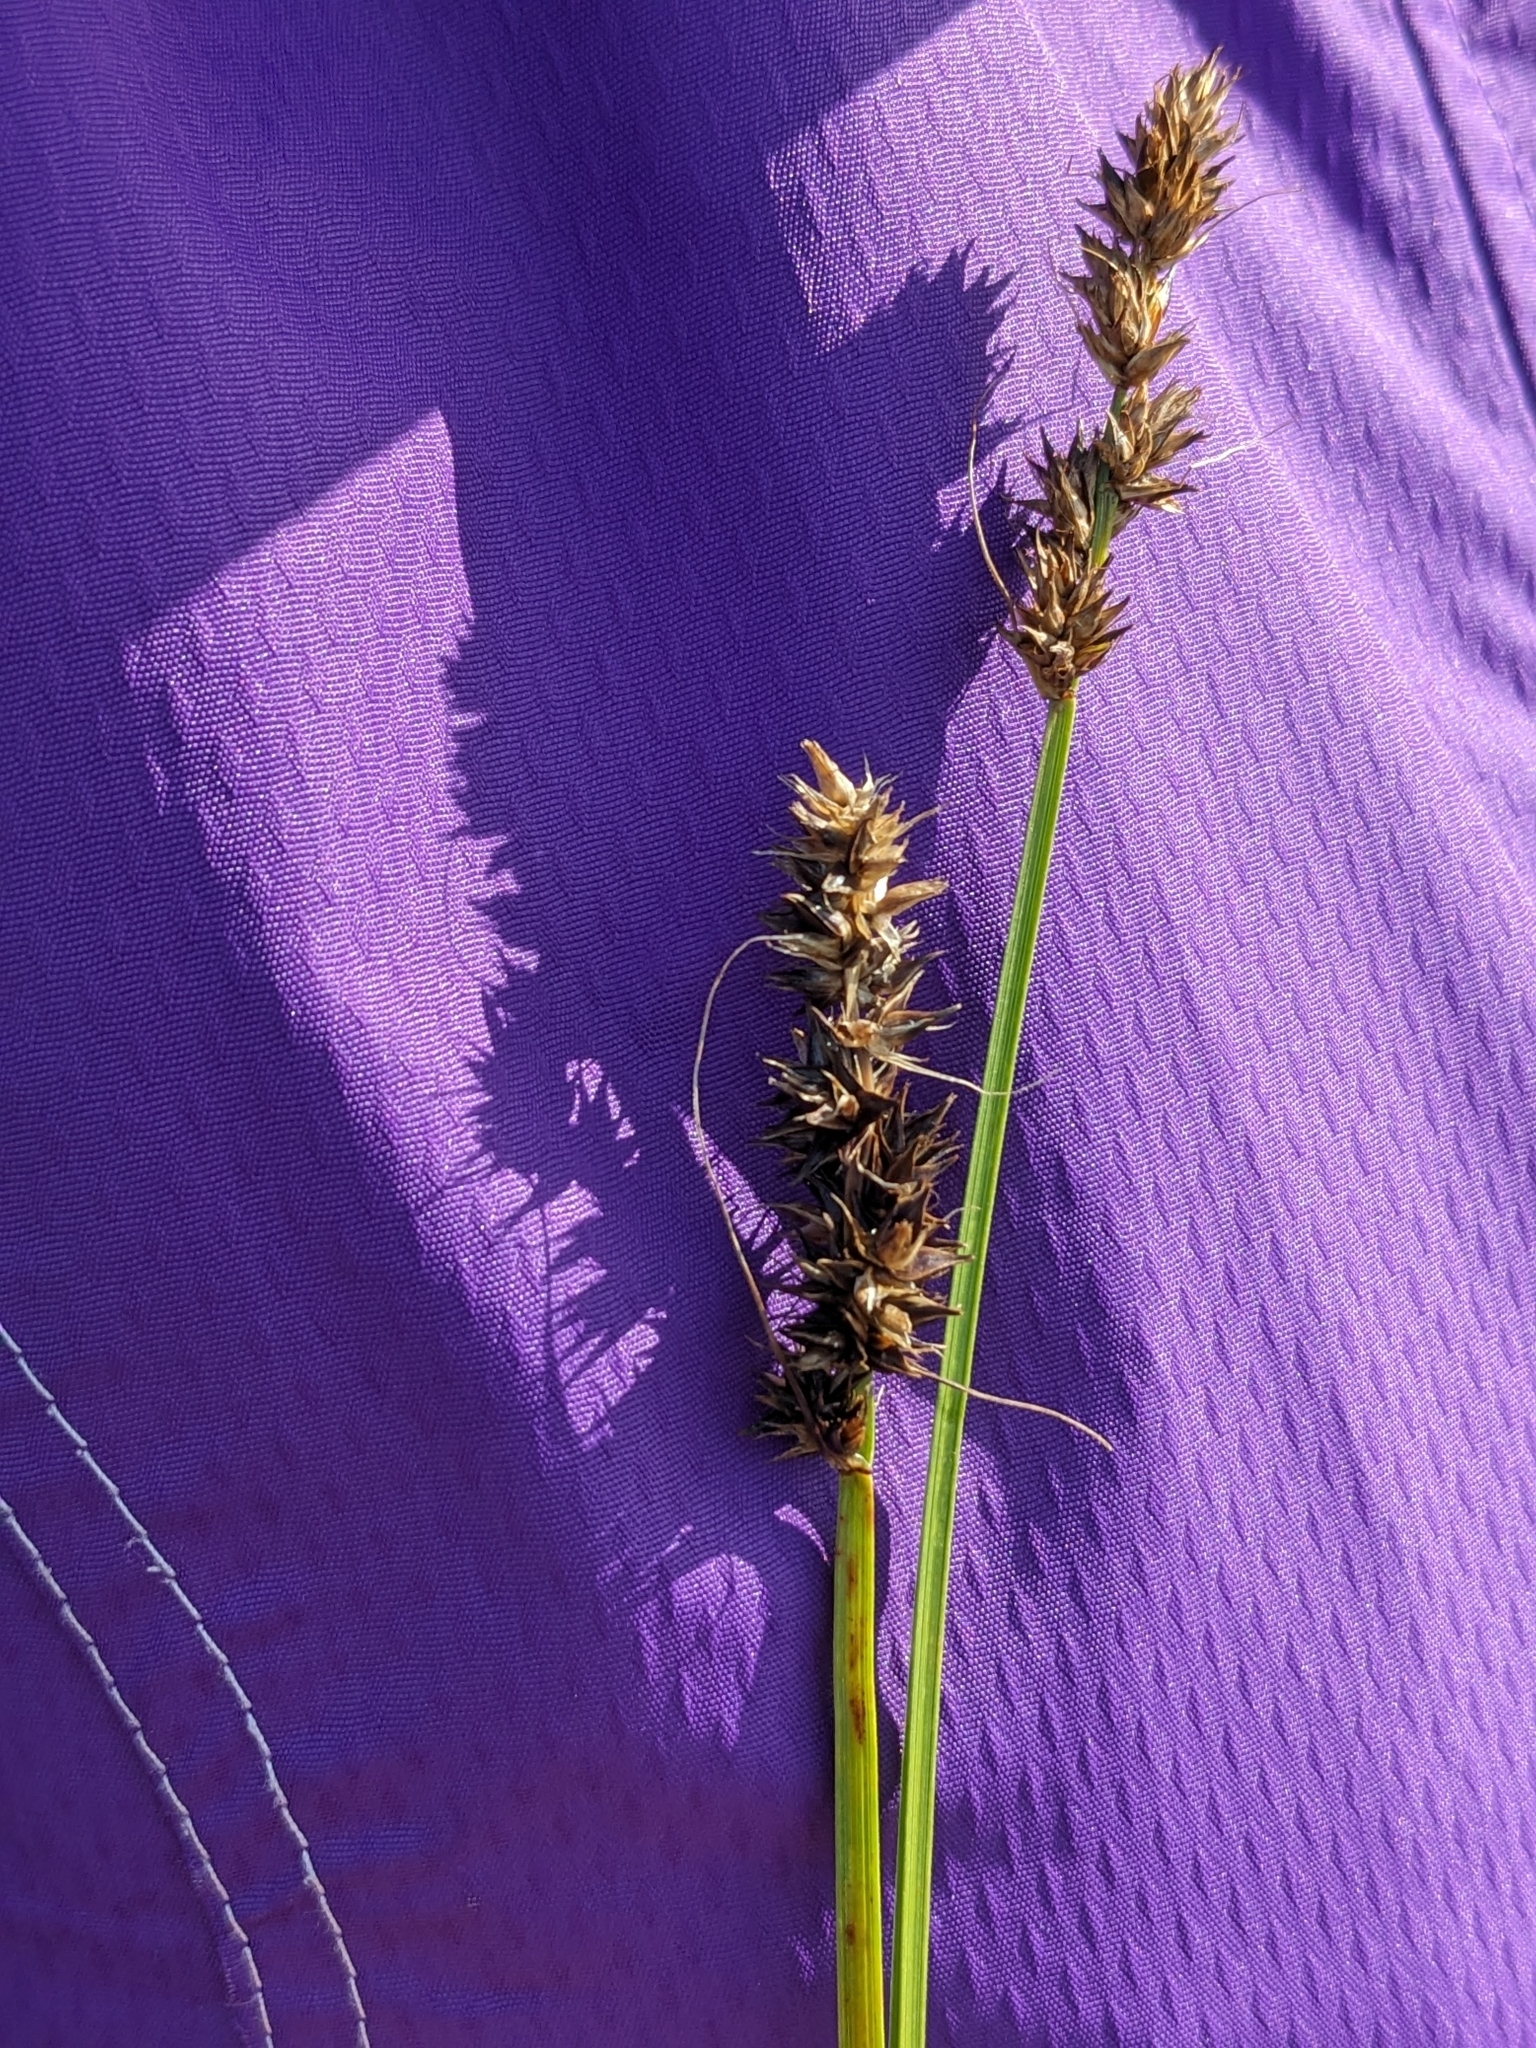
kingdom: Plantae
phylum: Tracheophyta
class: Liliopsida
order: Poales
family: Cyperaceae
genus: Carex
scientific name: Carex otrubae
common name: False fox-sedge
